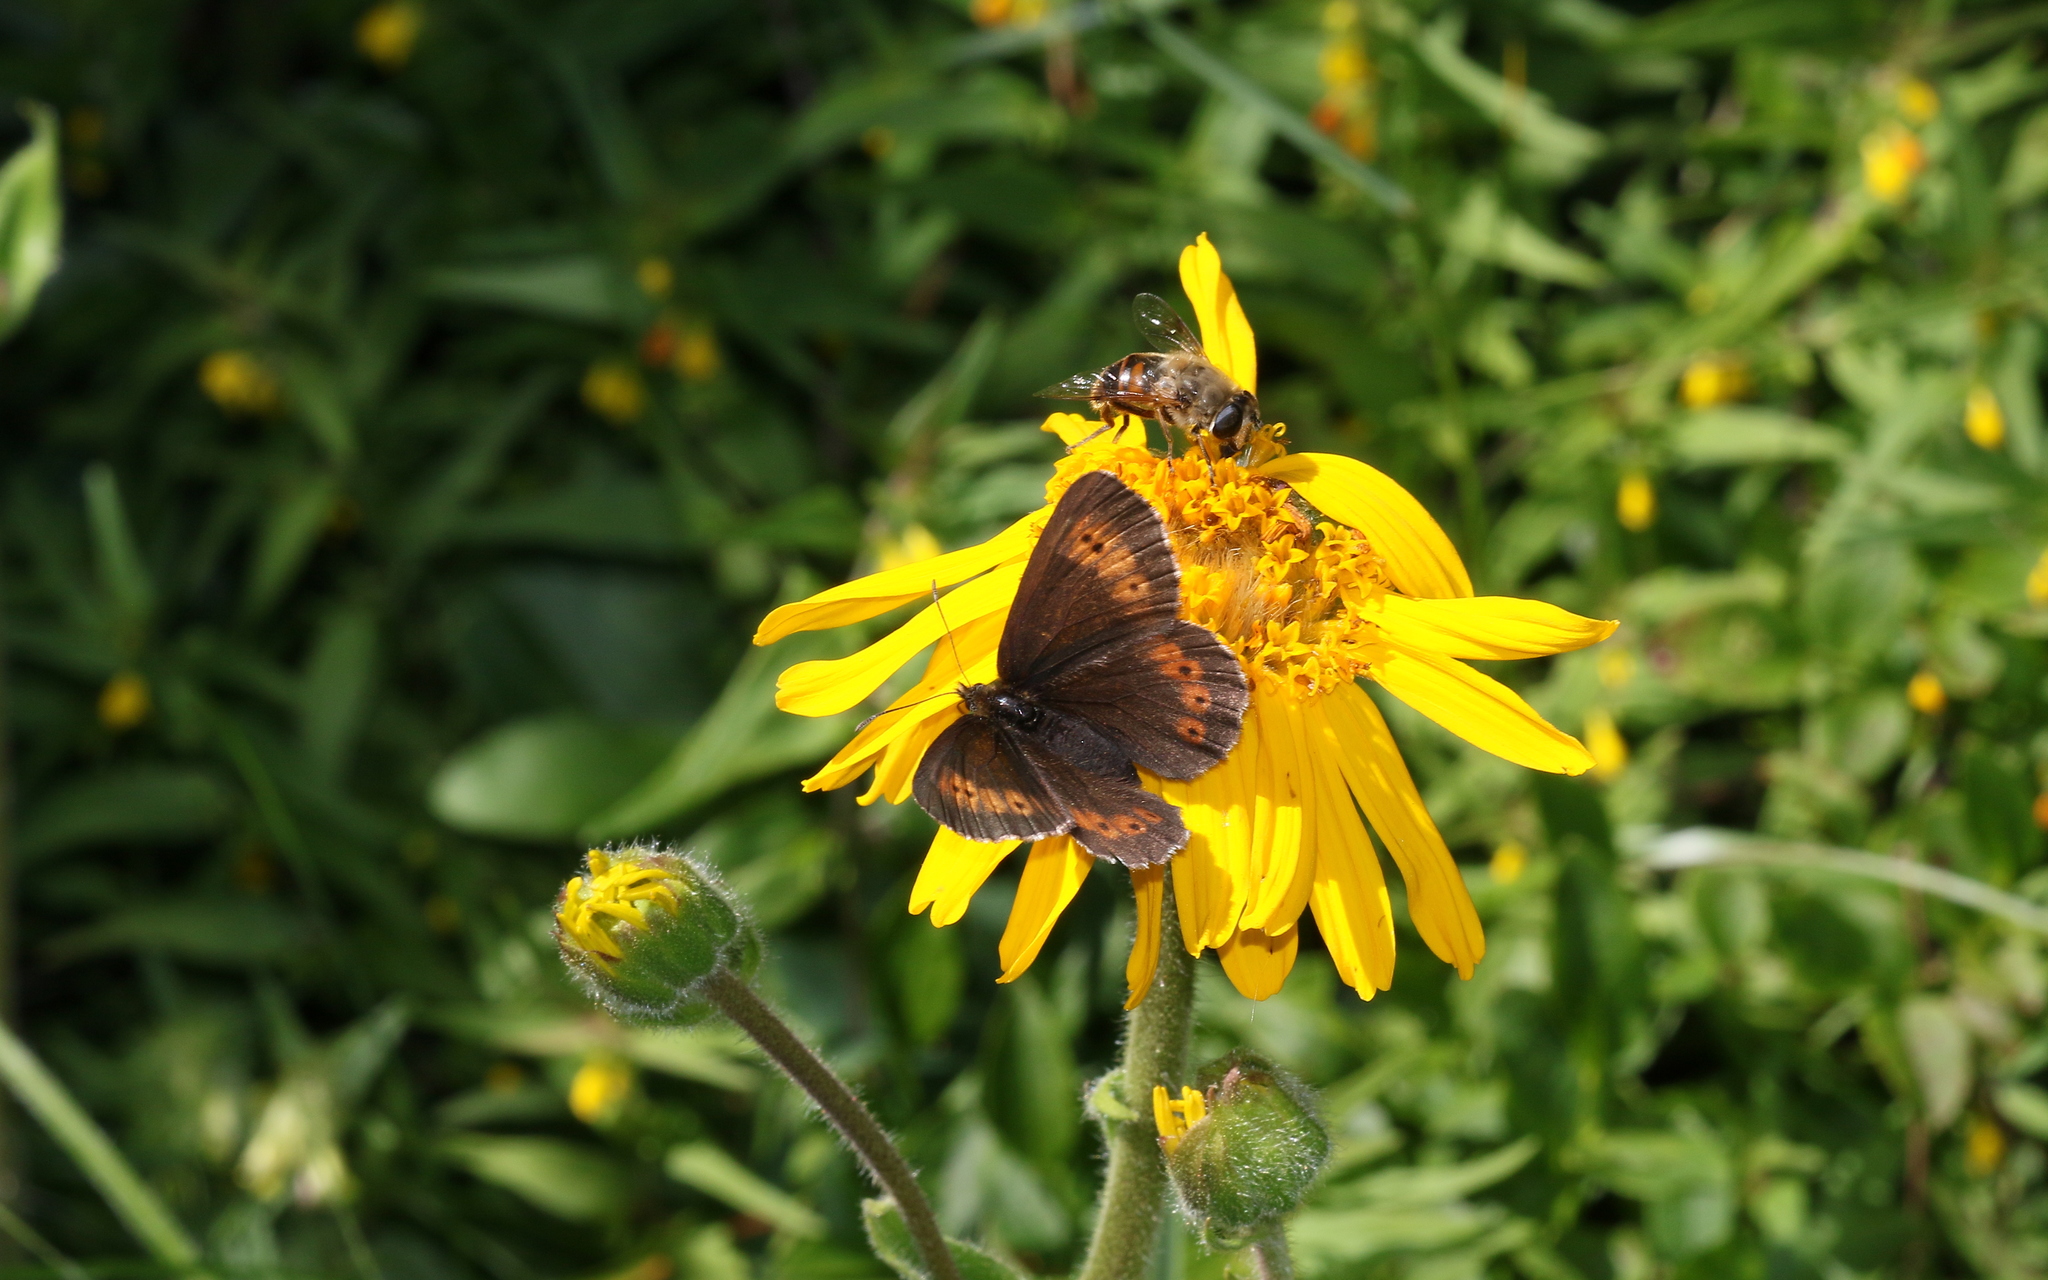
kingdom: Animalia
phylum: Arthropoda
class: Insecta
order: Lepidoptera
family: Nymphalidae
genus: Erebia
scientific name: Erebia euryale
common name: Large ringlet
